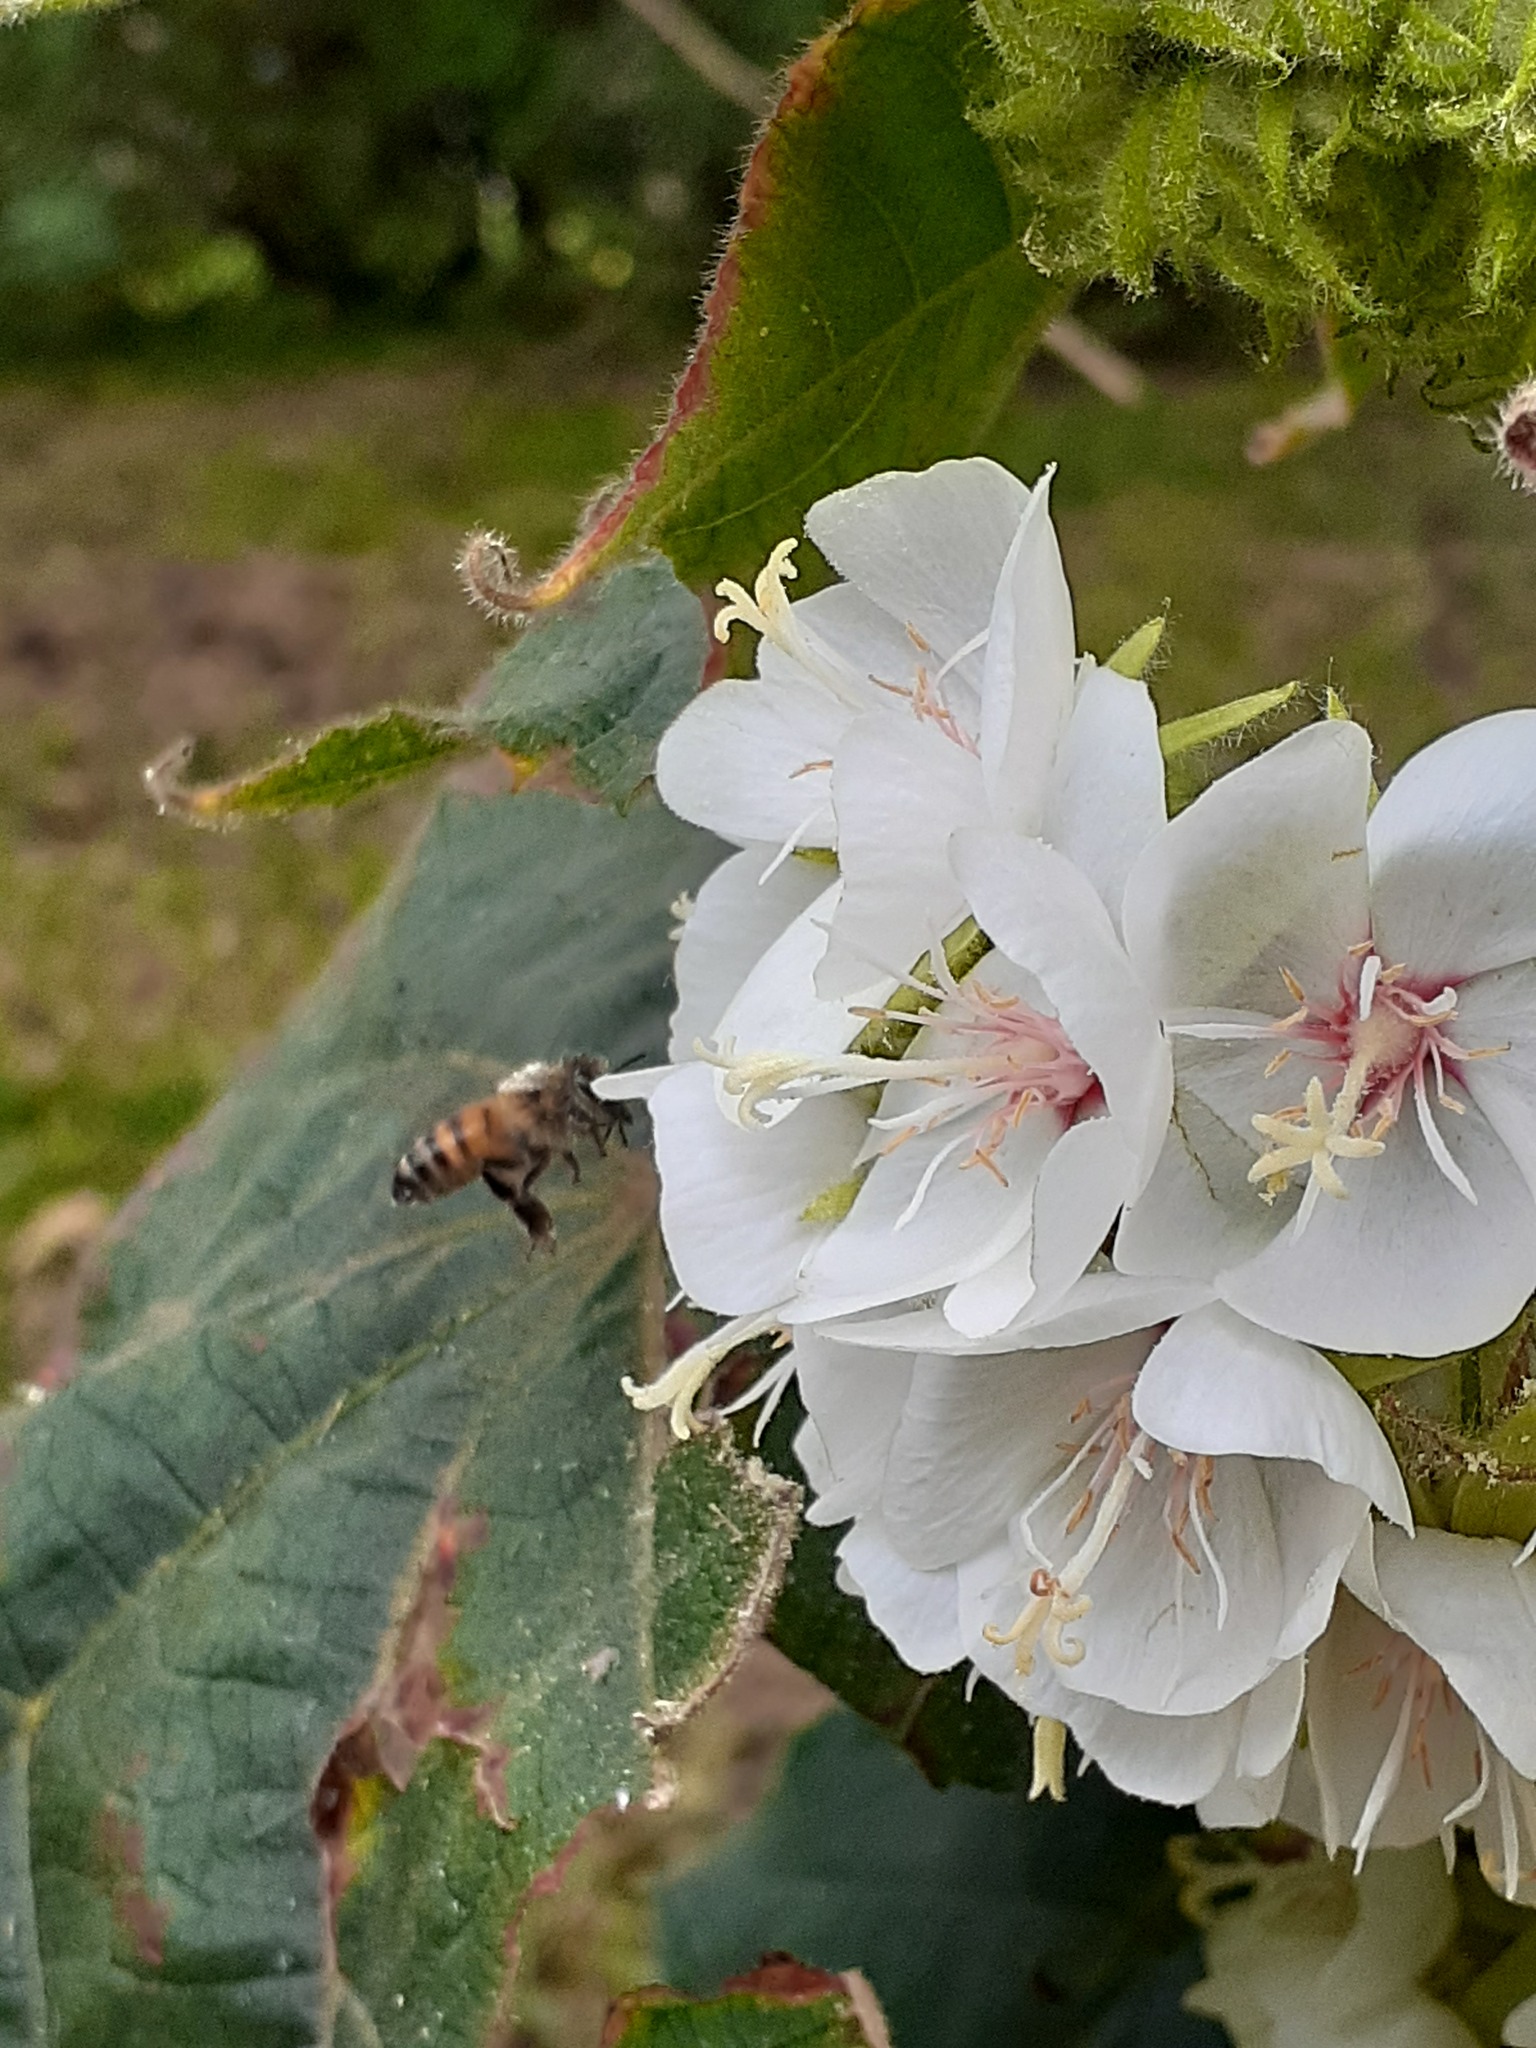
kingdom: Animalia
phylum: Arthropoda
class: Insecta
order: Hymenoptera
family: Apidae
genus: Apis
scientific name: Apis mellifera
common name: Honey bee
